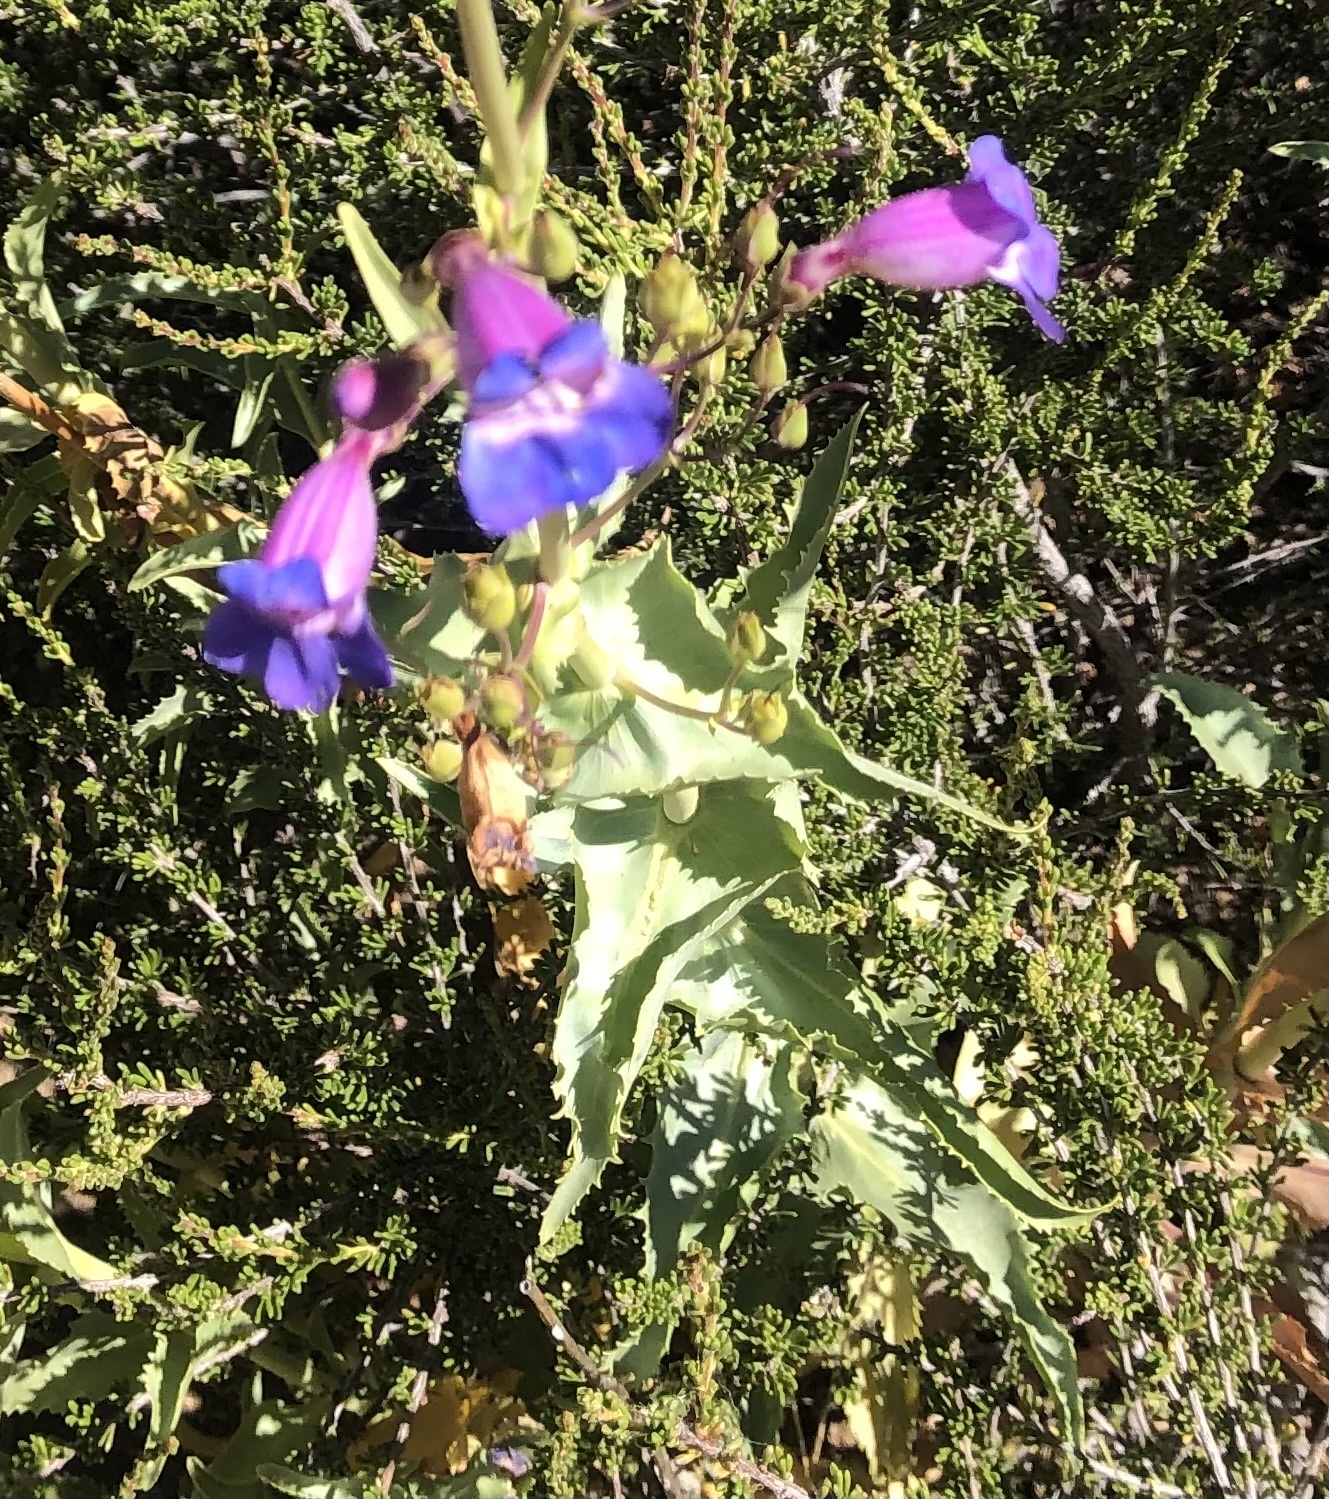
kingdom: Plantae
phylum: Tracheophyta
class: Magnoliopsida
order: Lamiales
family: Plantaginaceae
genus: Penstemon
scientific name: Penstemon spectabilis
